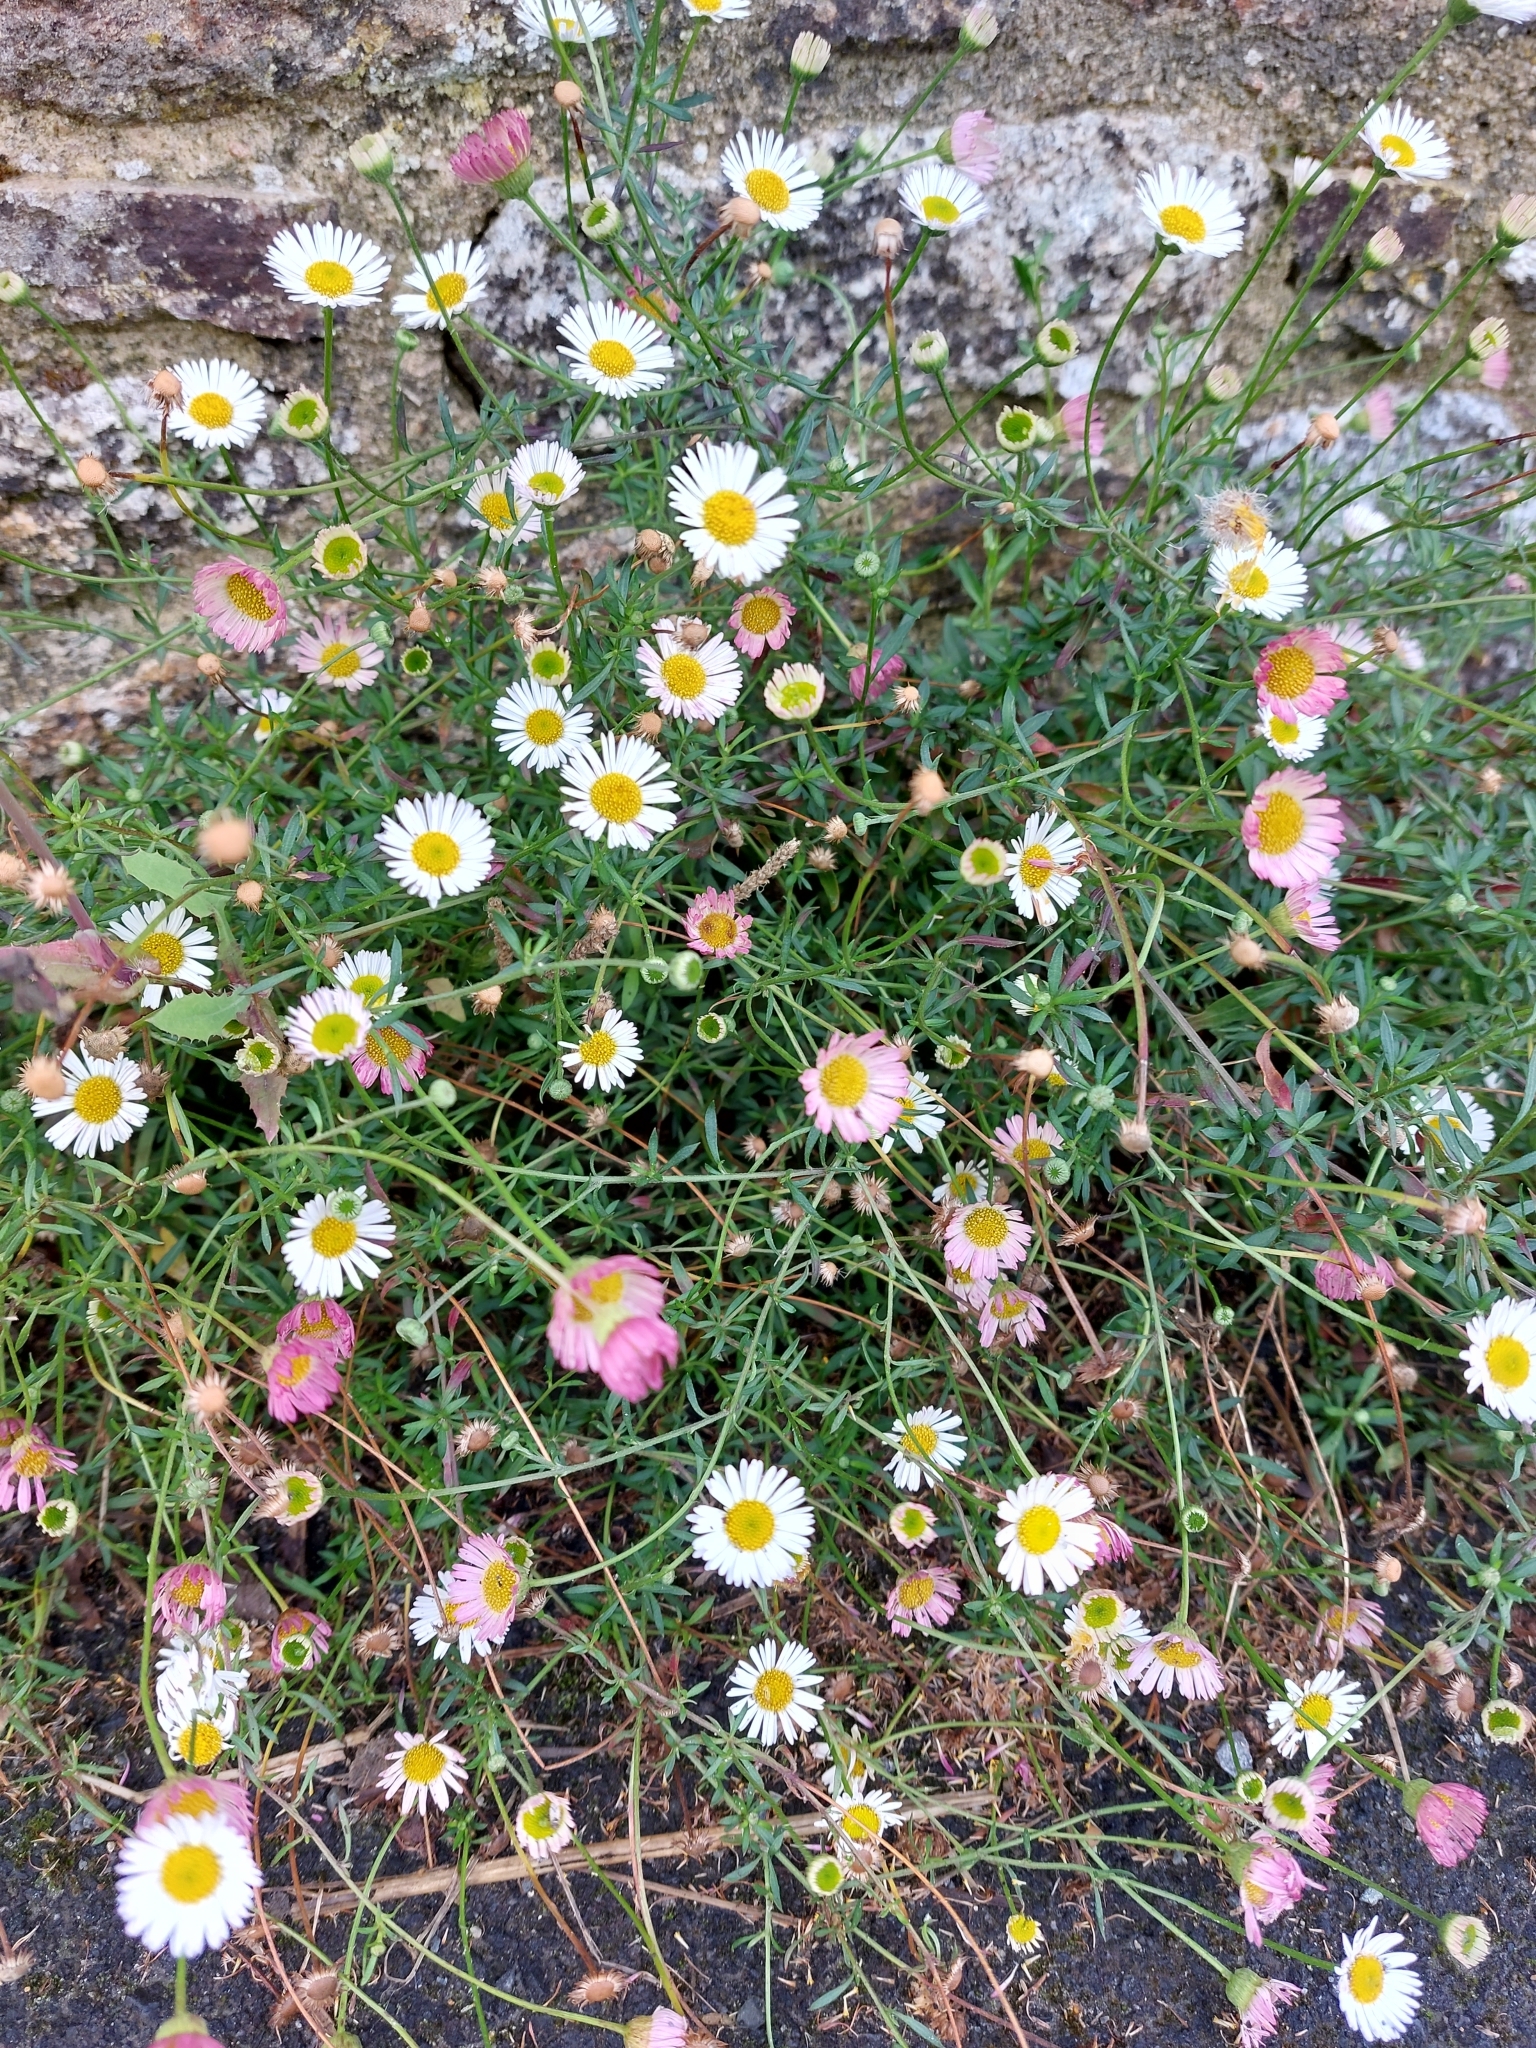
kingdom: Plantae
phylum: Tracheophyta
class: Magnoliopsida
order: Asterales
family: Asteraceae
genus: Erigeron
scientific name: Erigeron karvinskianus
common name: Mexican fleabane
